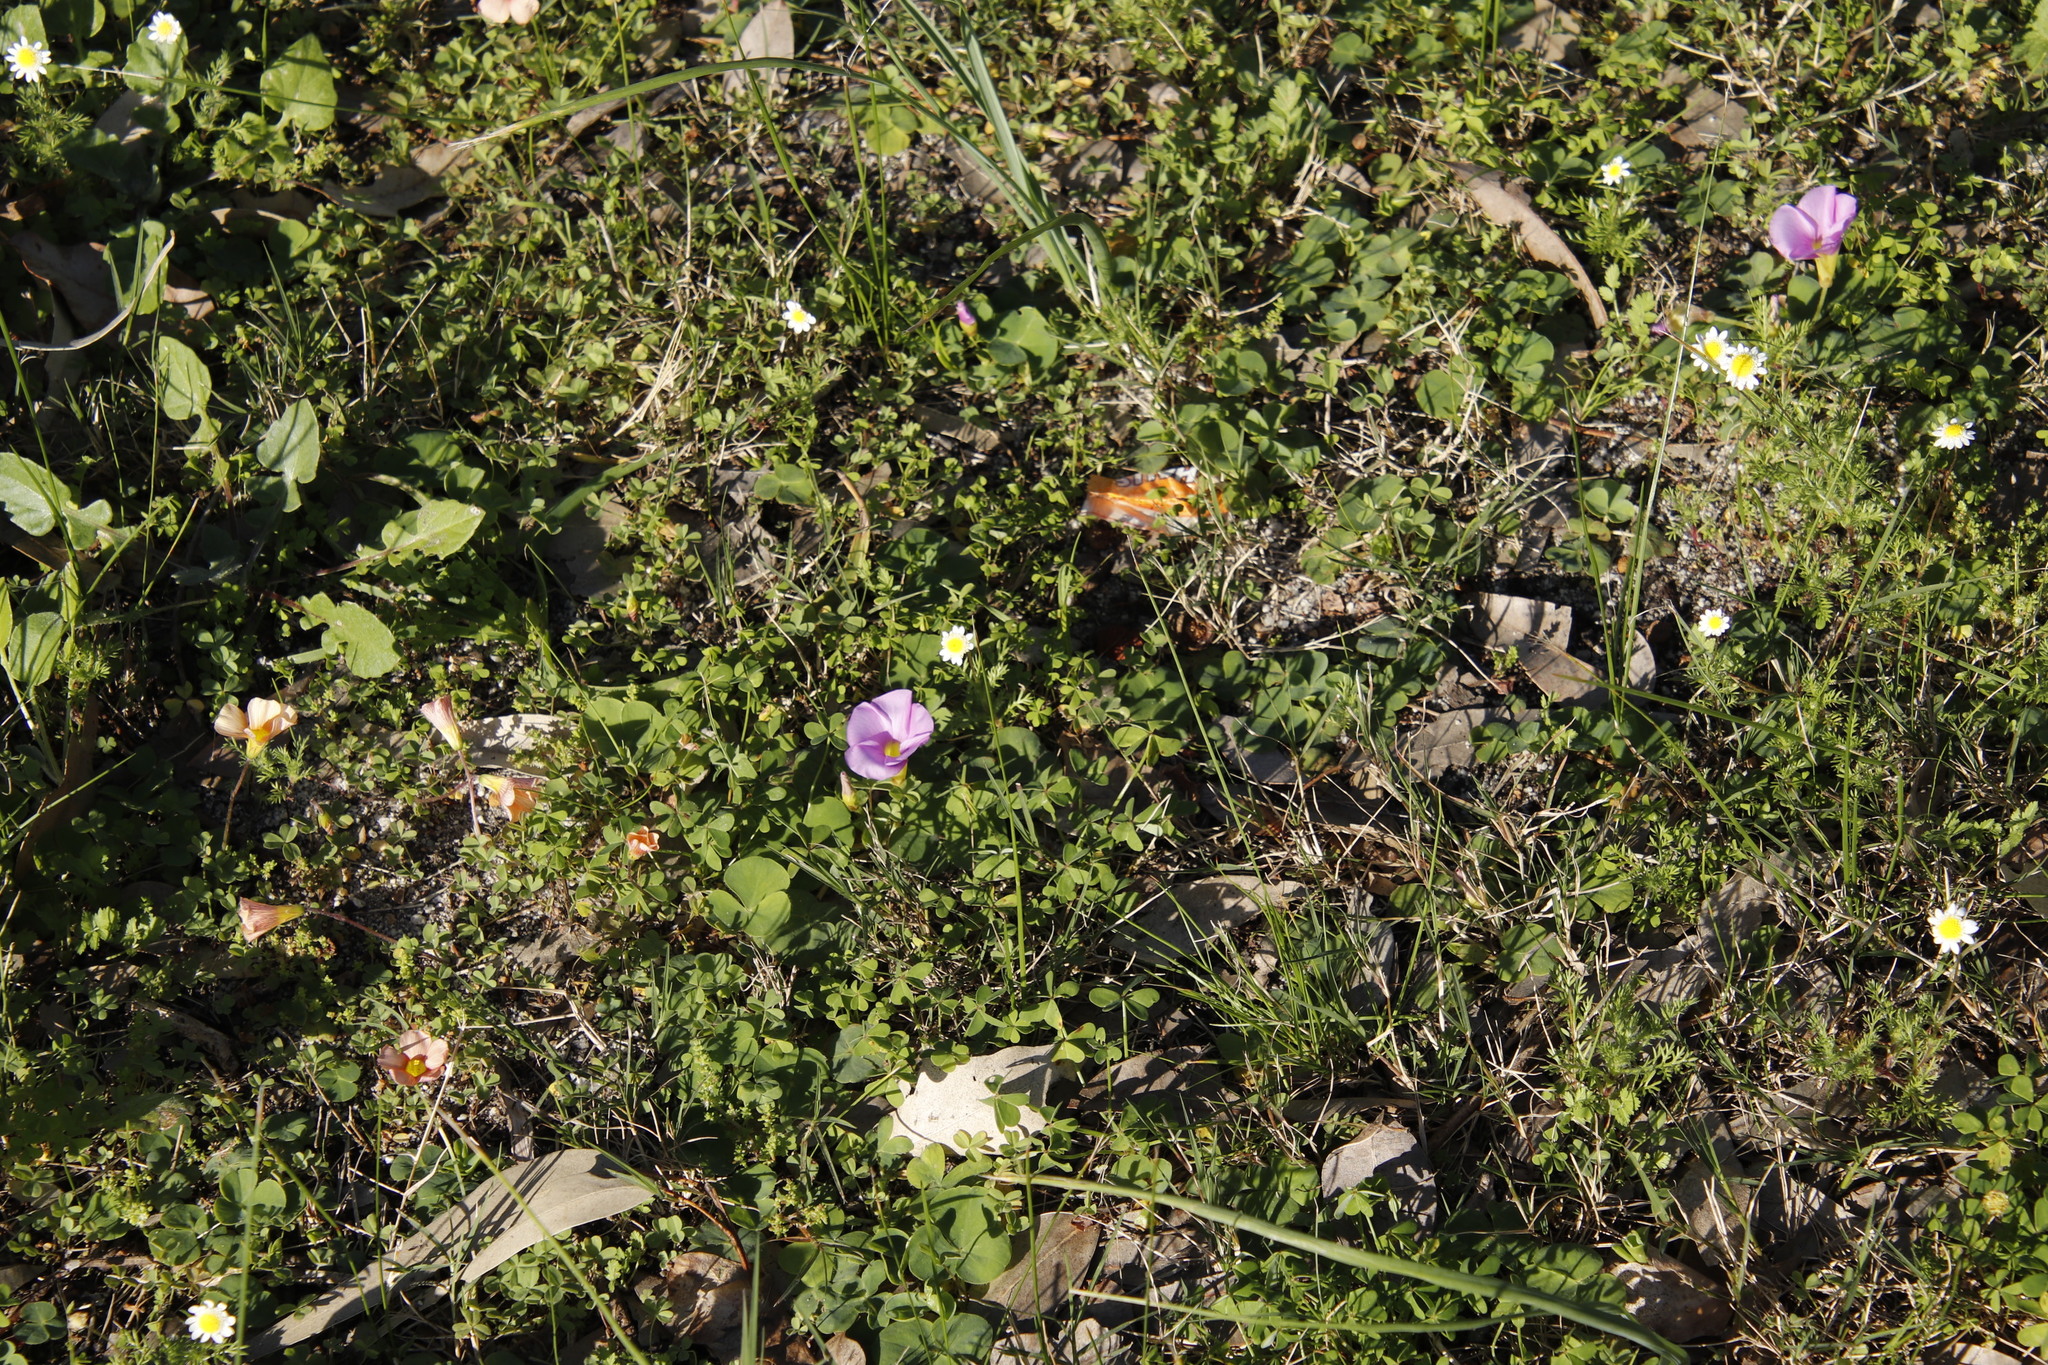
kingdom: Plantae
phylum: Tracheophyta
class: Magnoliopsida
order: Oxalidales
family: Oxalidaceae
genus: Oxalis
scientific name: Oxalis purpurea
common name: Purple woodsorrel
